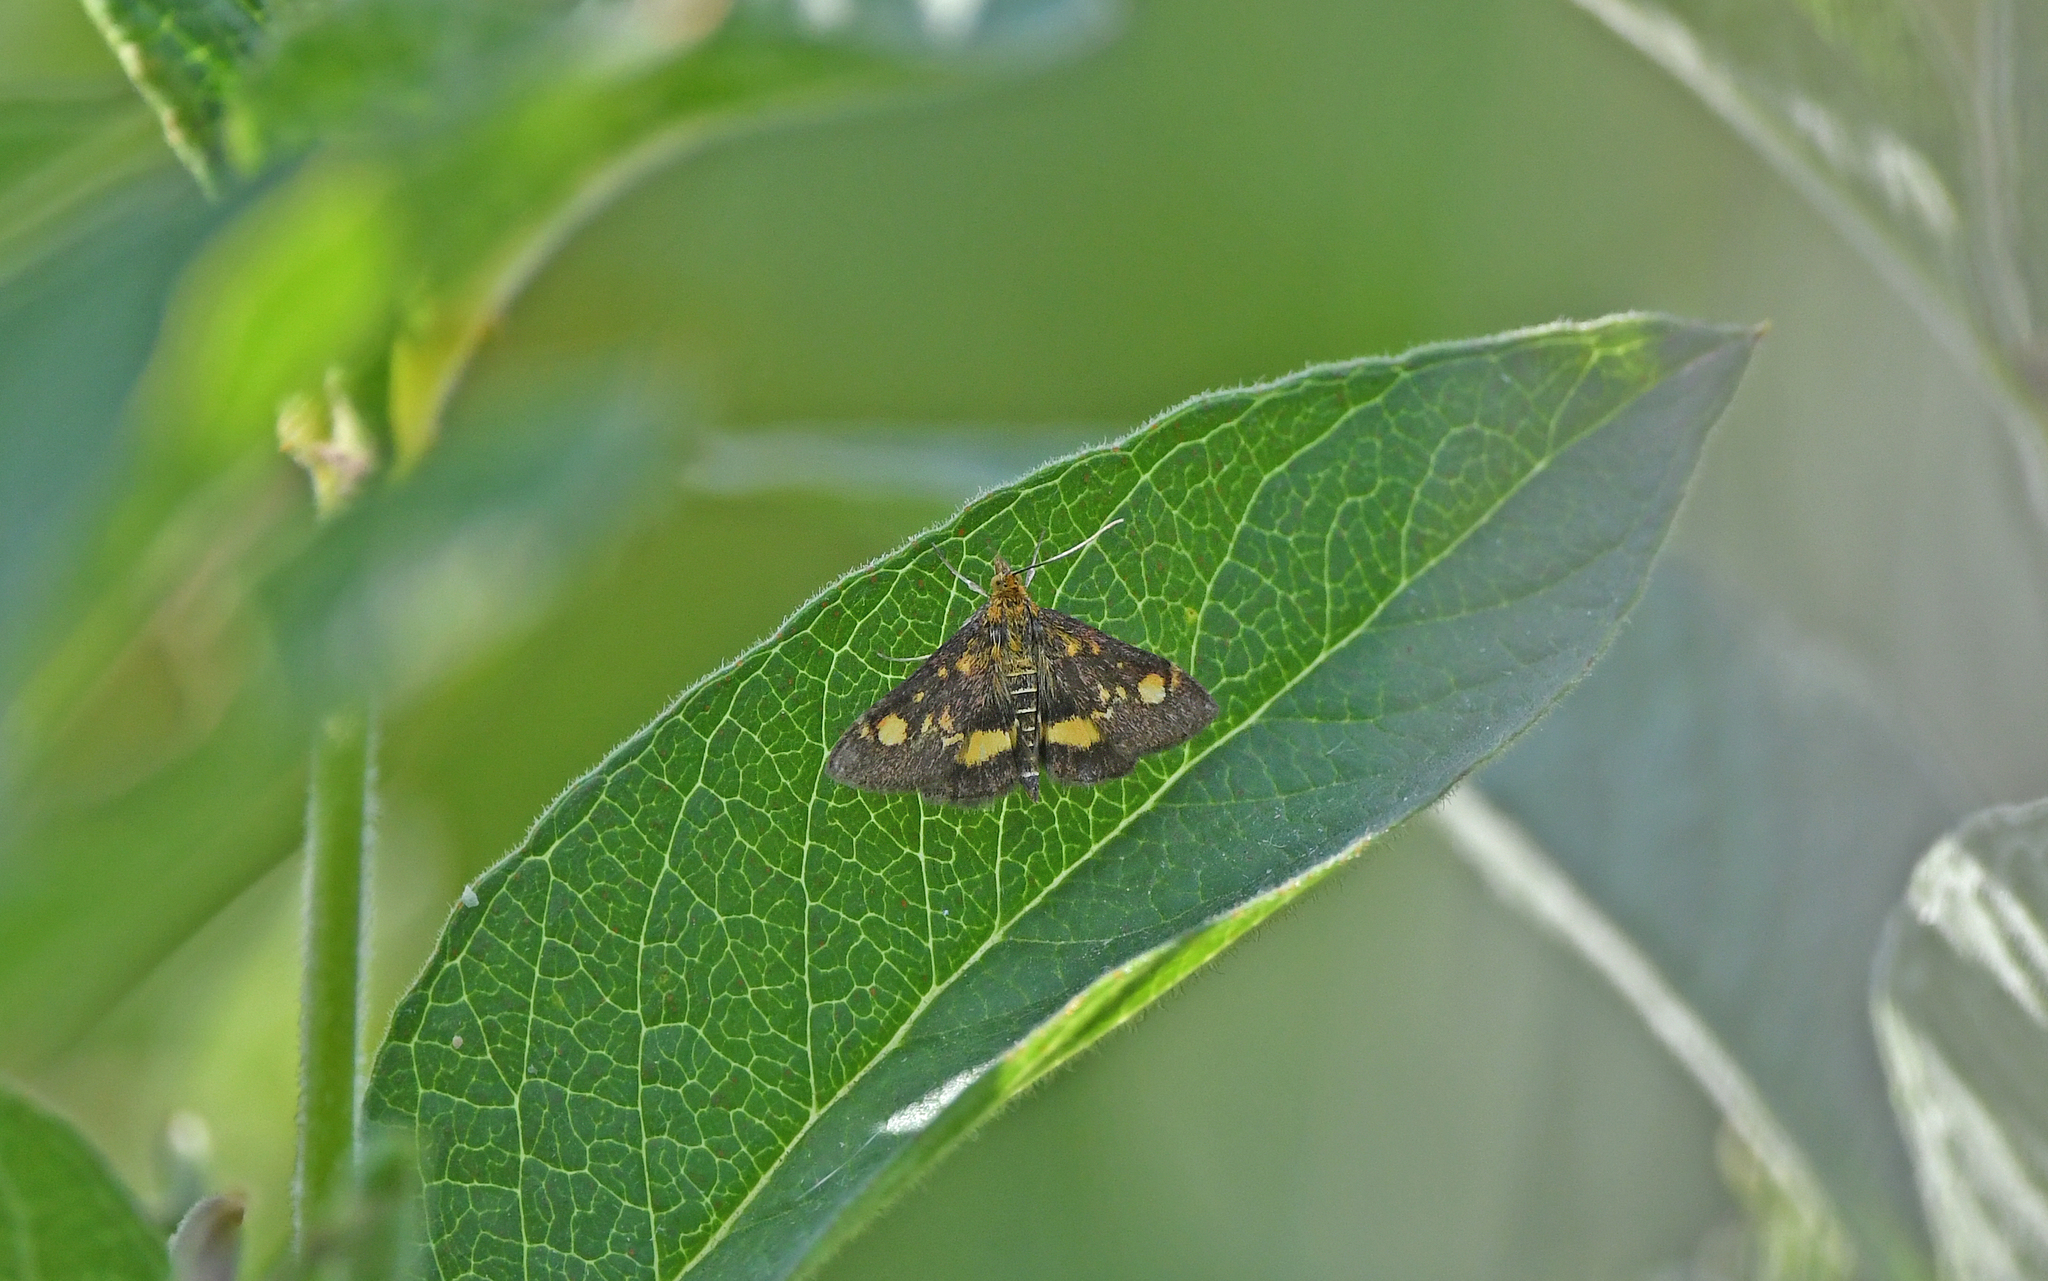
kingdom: Animalia
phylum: Arthropoda
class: Insecta
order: Lepidoptera
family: Crambidae
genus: Pyrausta
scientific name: Pyrausta aurata
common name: Small purple & gold
